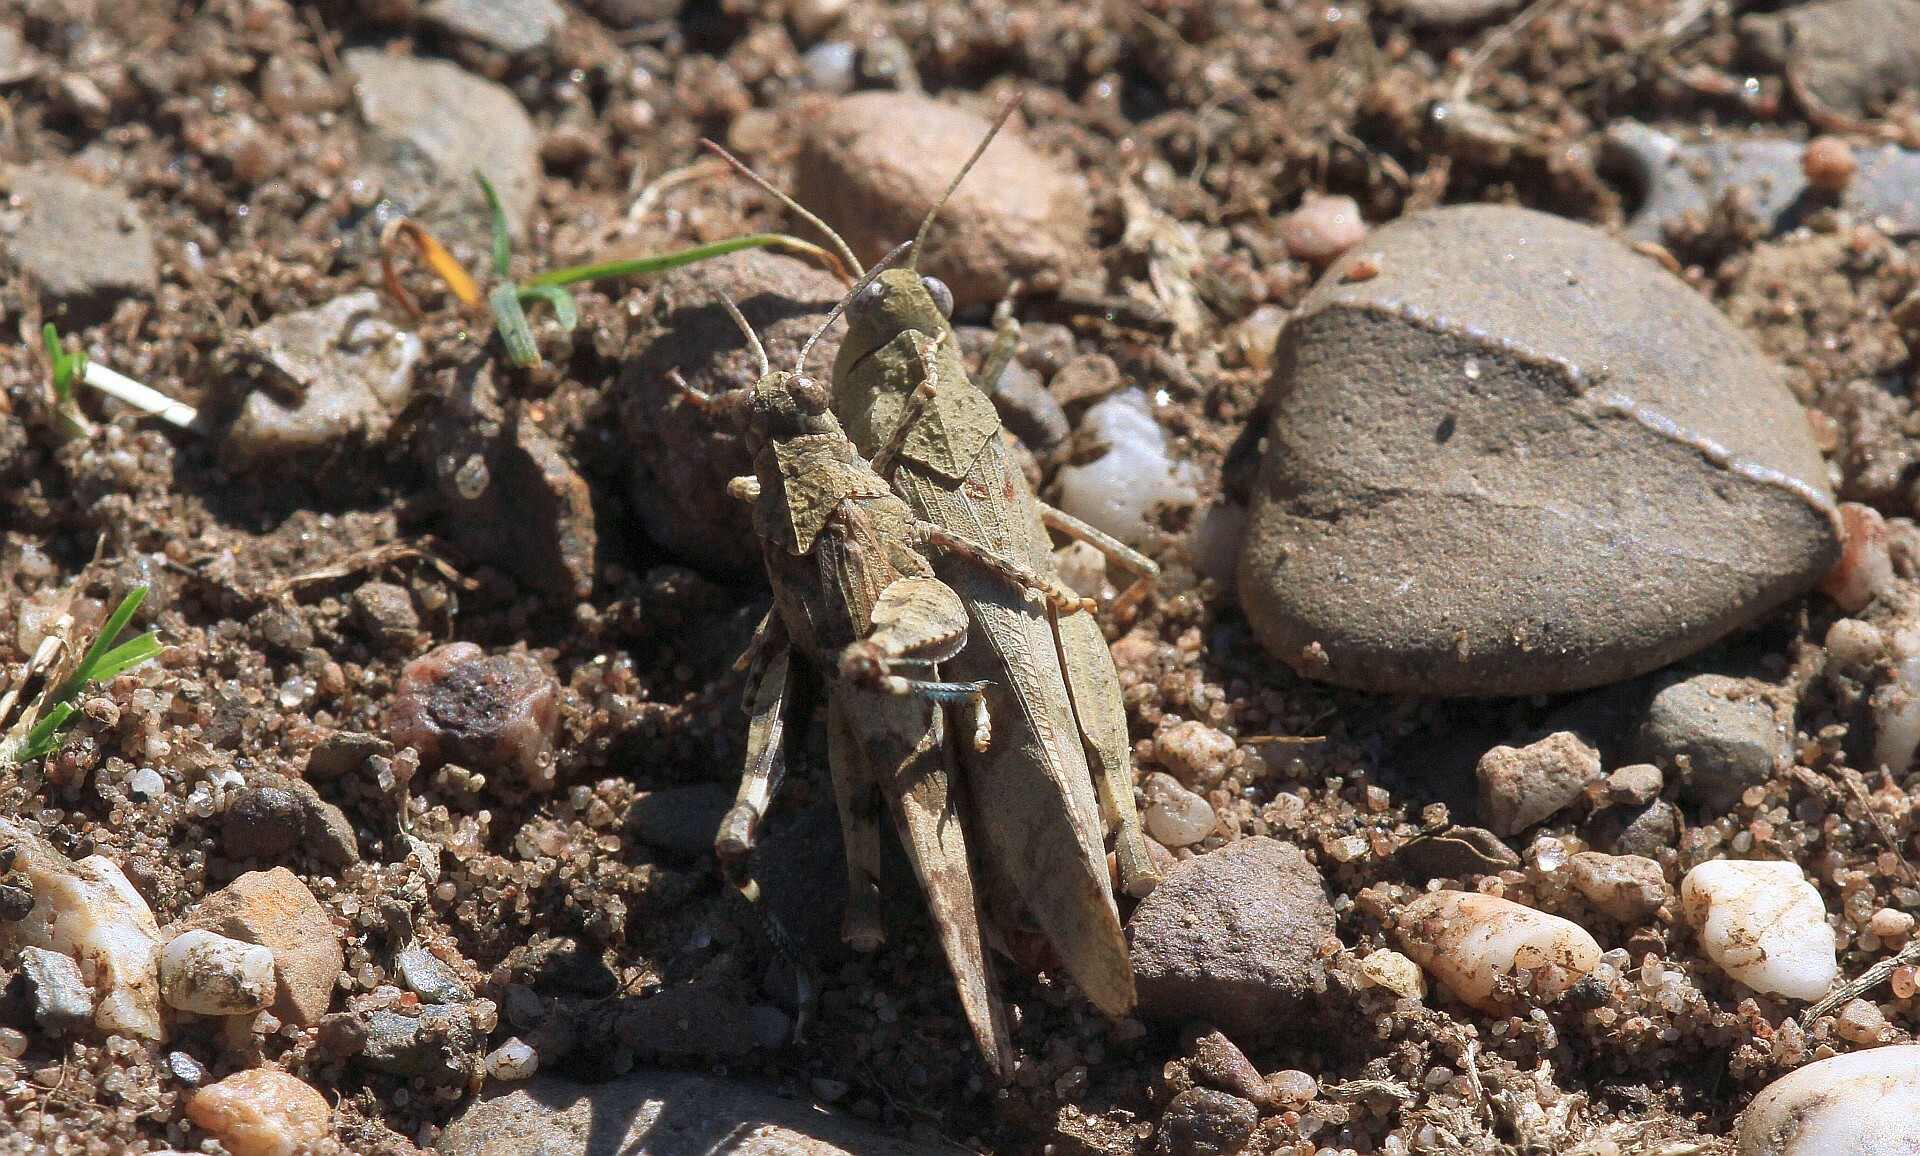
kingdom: Animalia
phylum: Arthropoda
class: Insecta
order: Orthoptera
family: Acrididae
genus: Oedipoda
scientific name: Oedipoda caerulescens
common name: Blue-winged grasshopper
